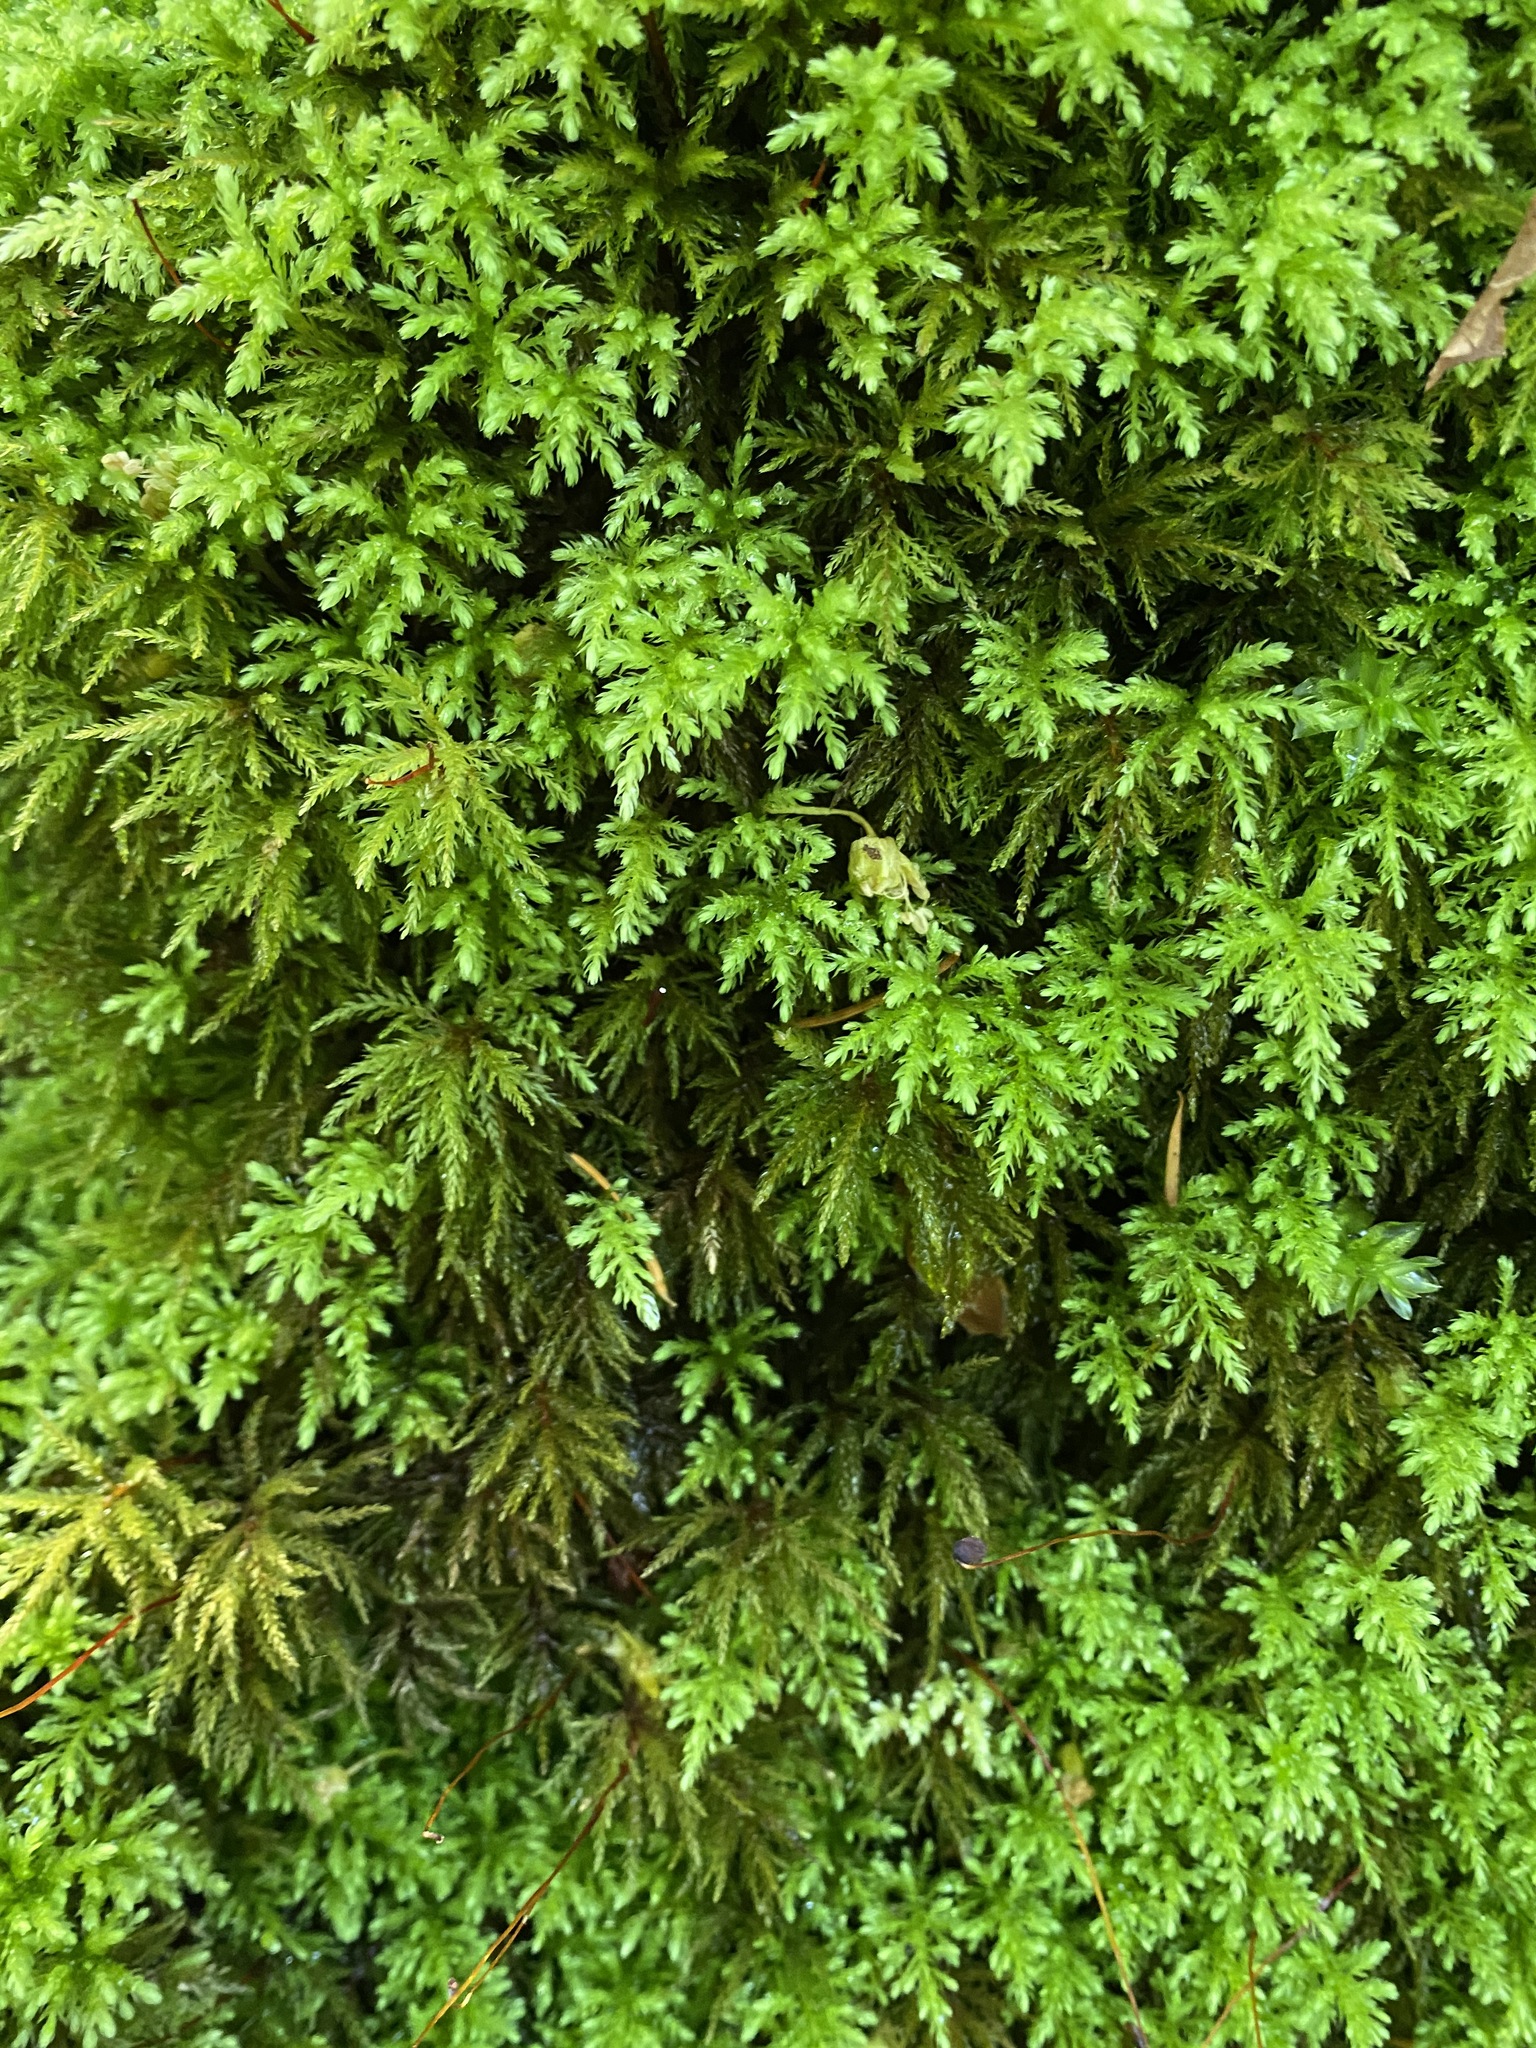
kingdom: Plantae
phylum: Bryophyta
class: Bryopsida
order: Bryales
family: Mniaceae
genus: Leucolepis
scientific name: Leucolepis acanthoneura
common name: Leucolepis umbrella moss
